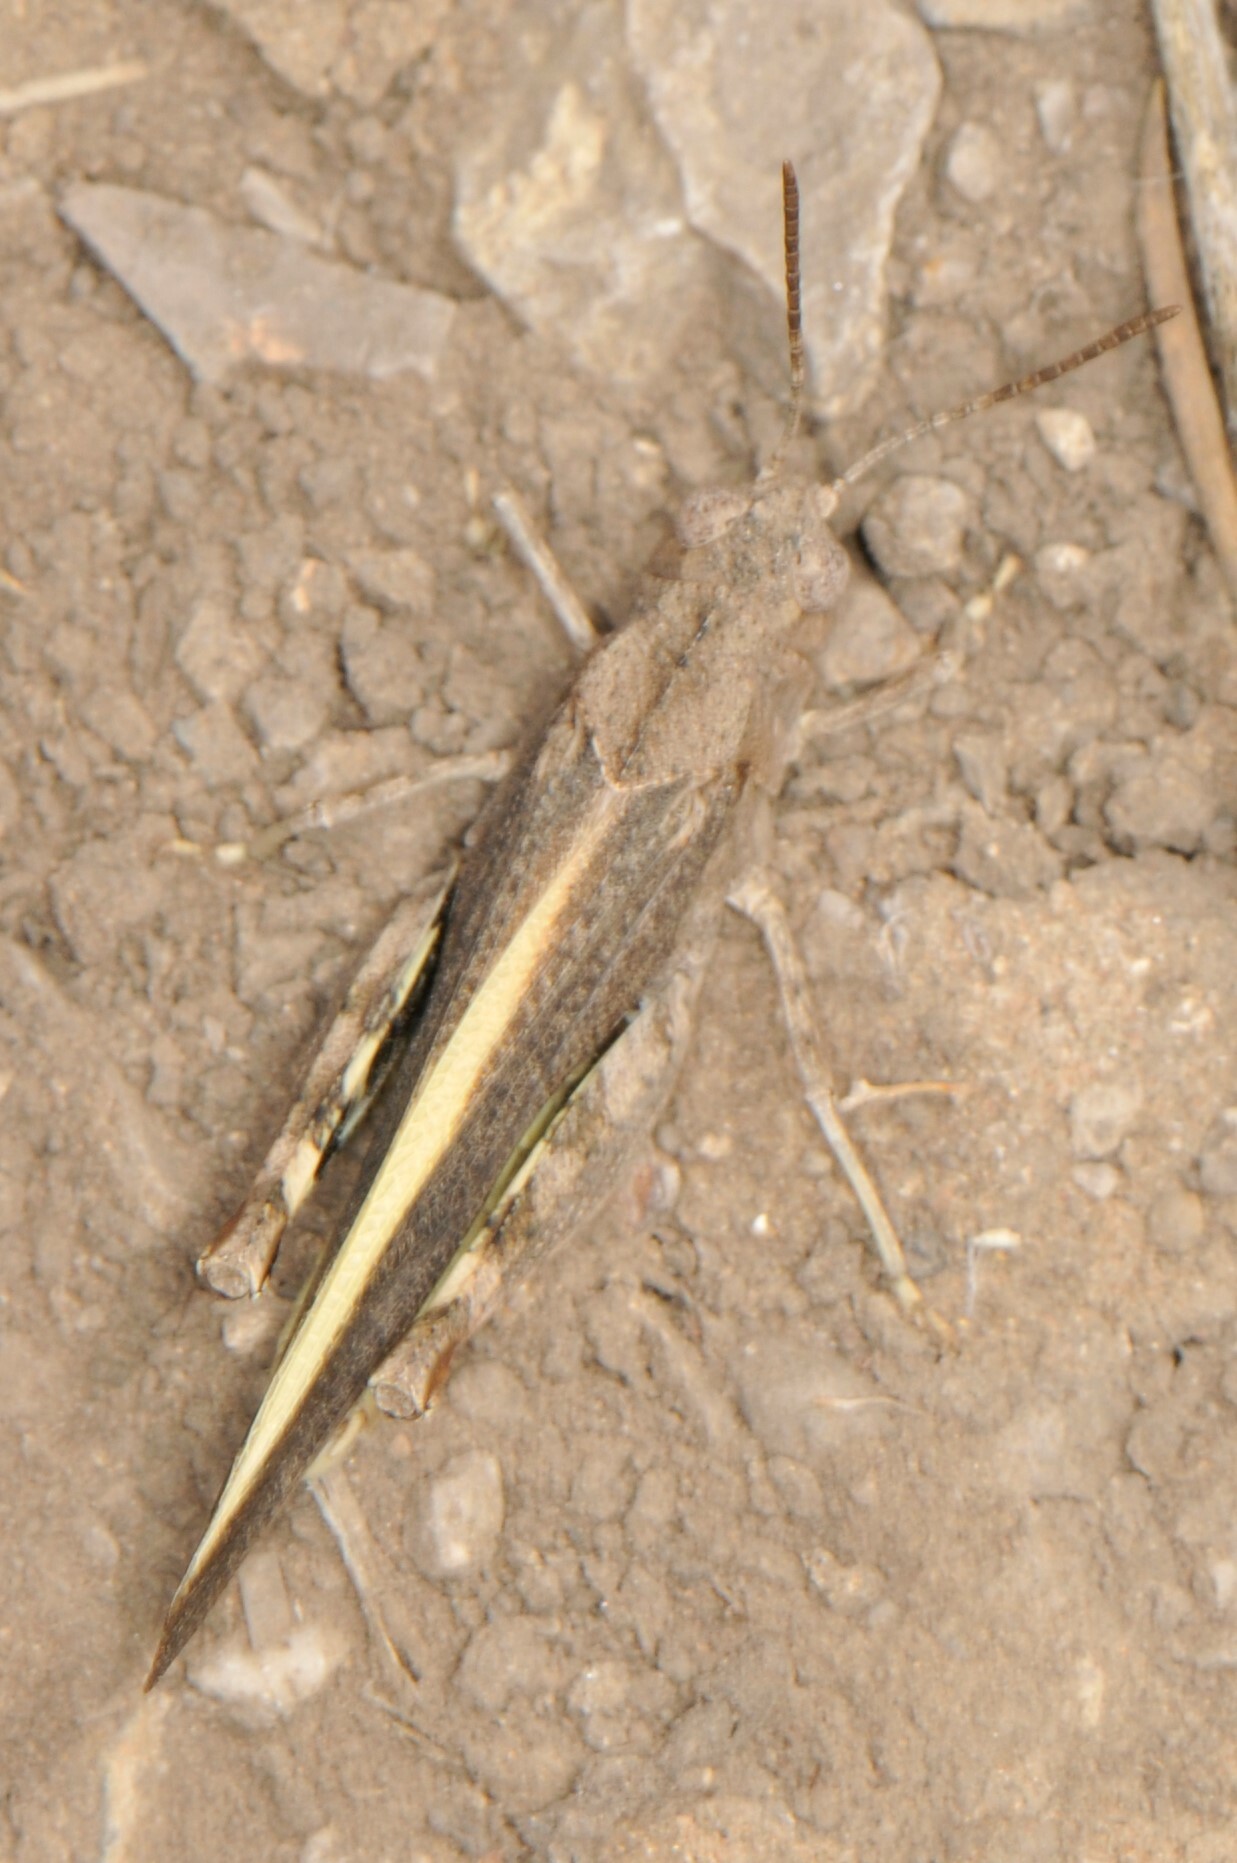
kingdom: Animalia
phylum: Arthropoda
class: Insecta
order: Orthoptera
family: Acrididae
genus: Arphia
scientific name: Arphia conspersa
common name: Speckle-winged rangeland grasshopper
